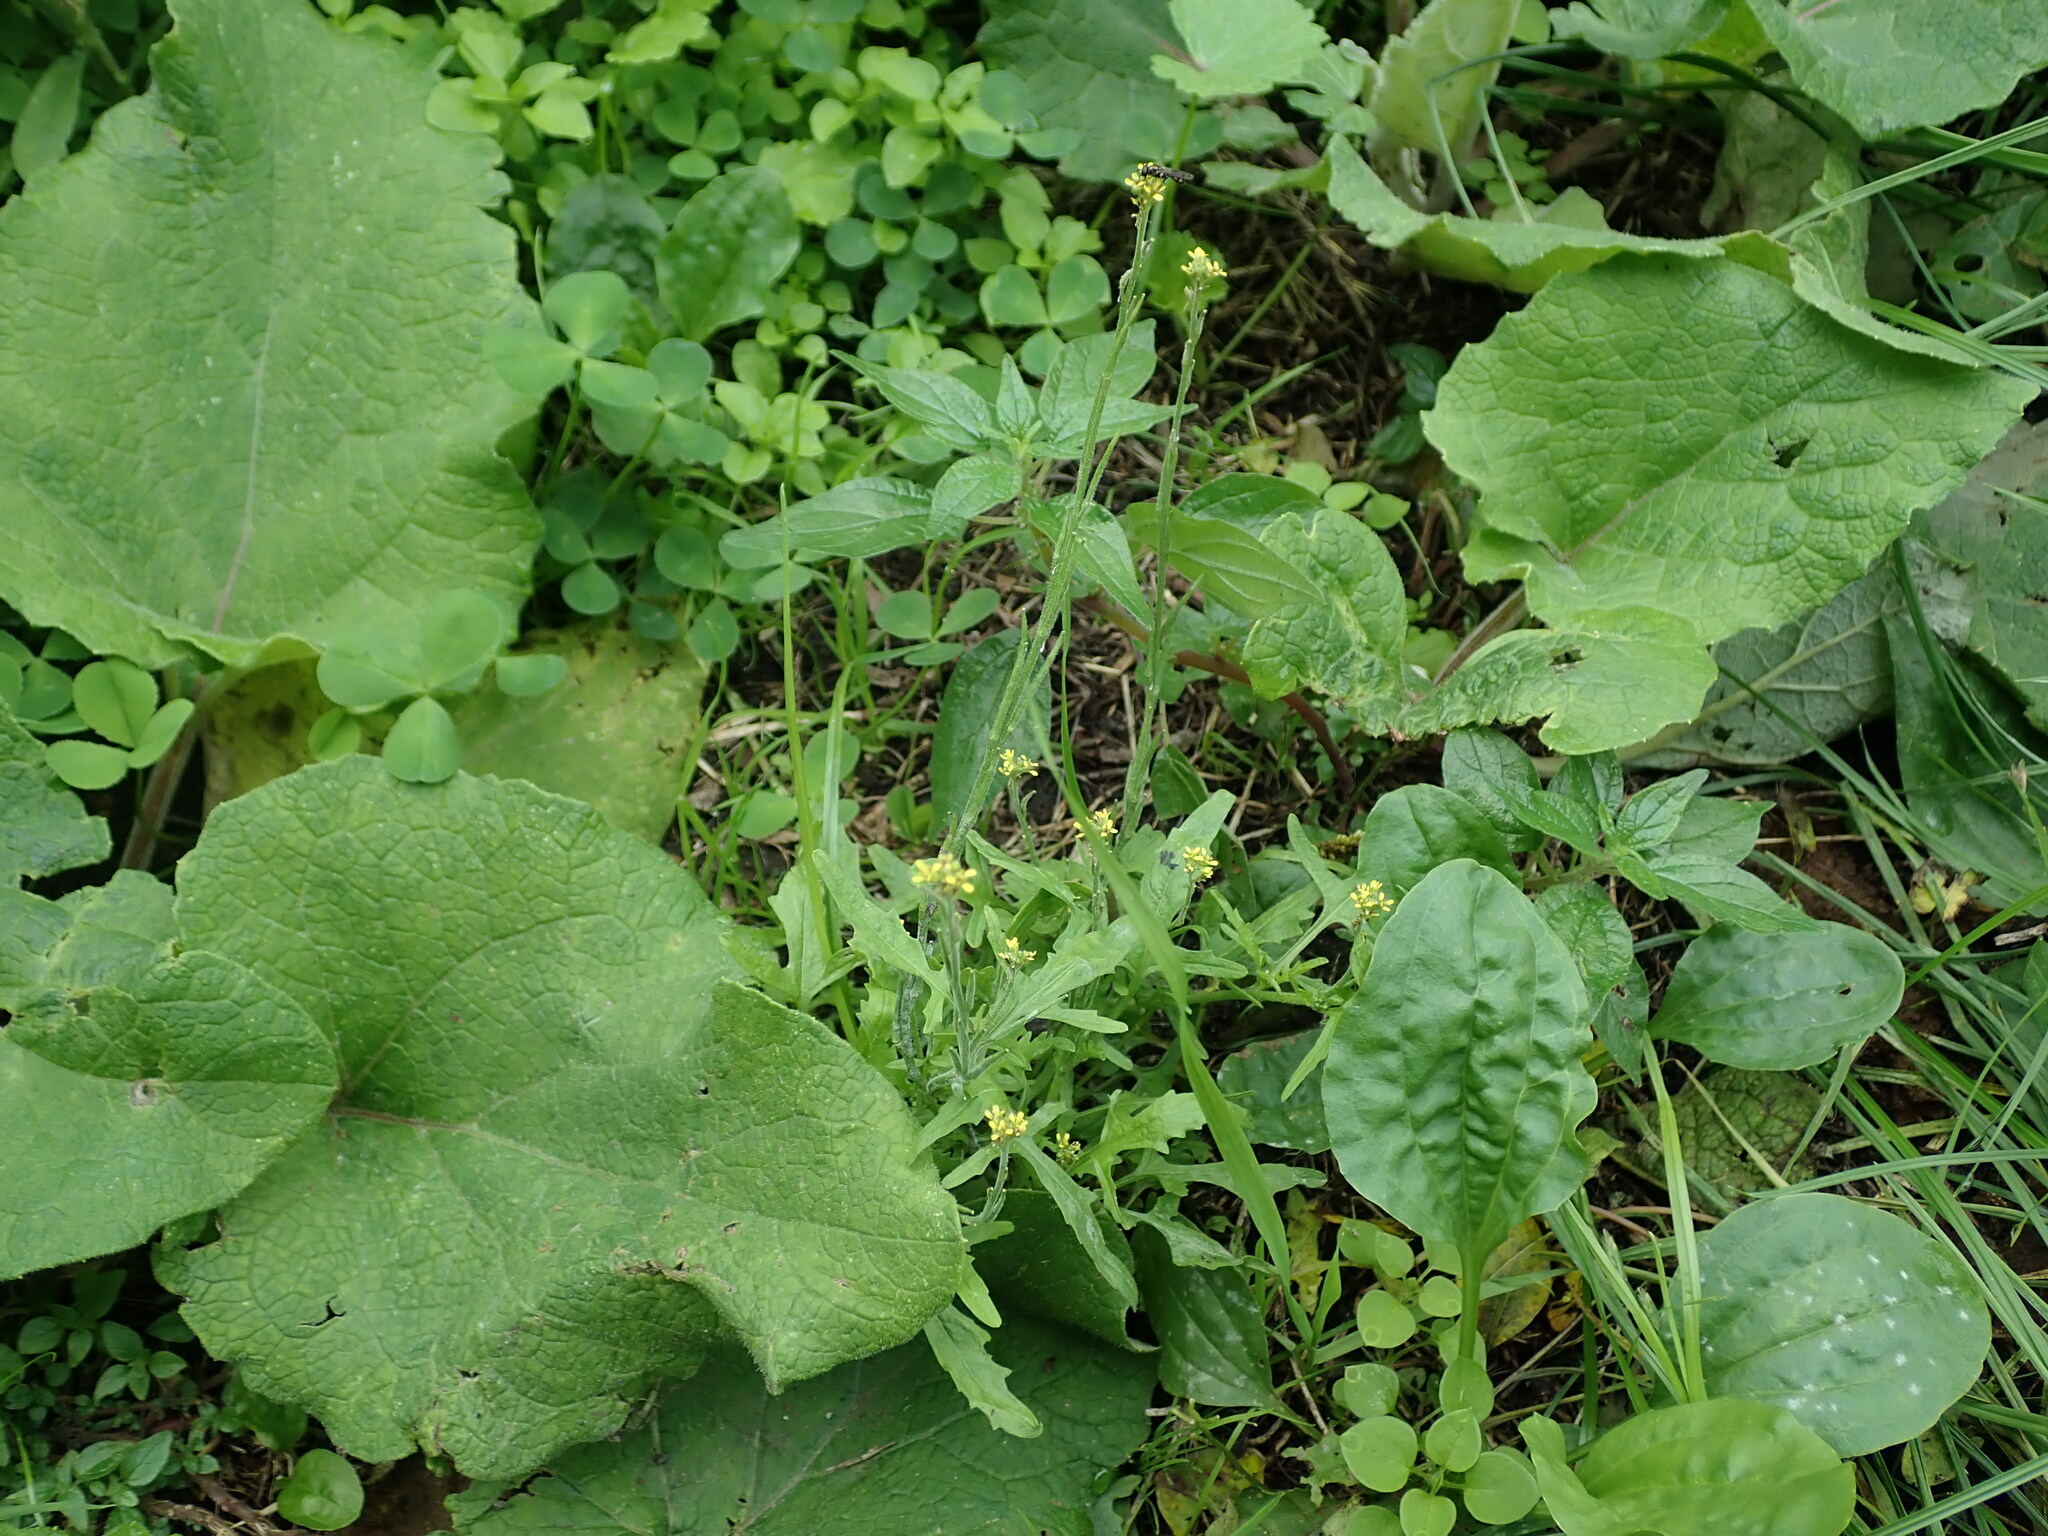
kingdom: Plantae
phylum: Tracheophyta
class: Magnoliopsida
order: Brassicales
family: Brassicaceae
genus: Sisymbrium
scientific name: Sisymbrium officinale
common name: Hedge mustard
